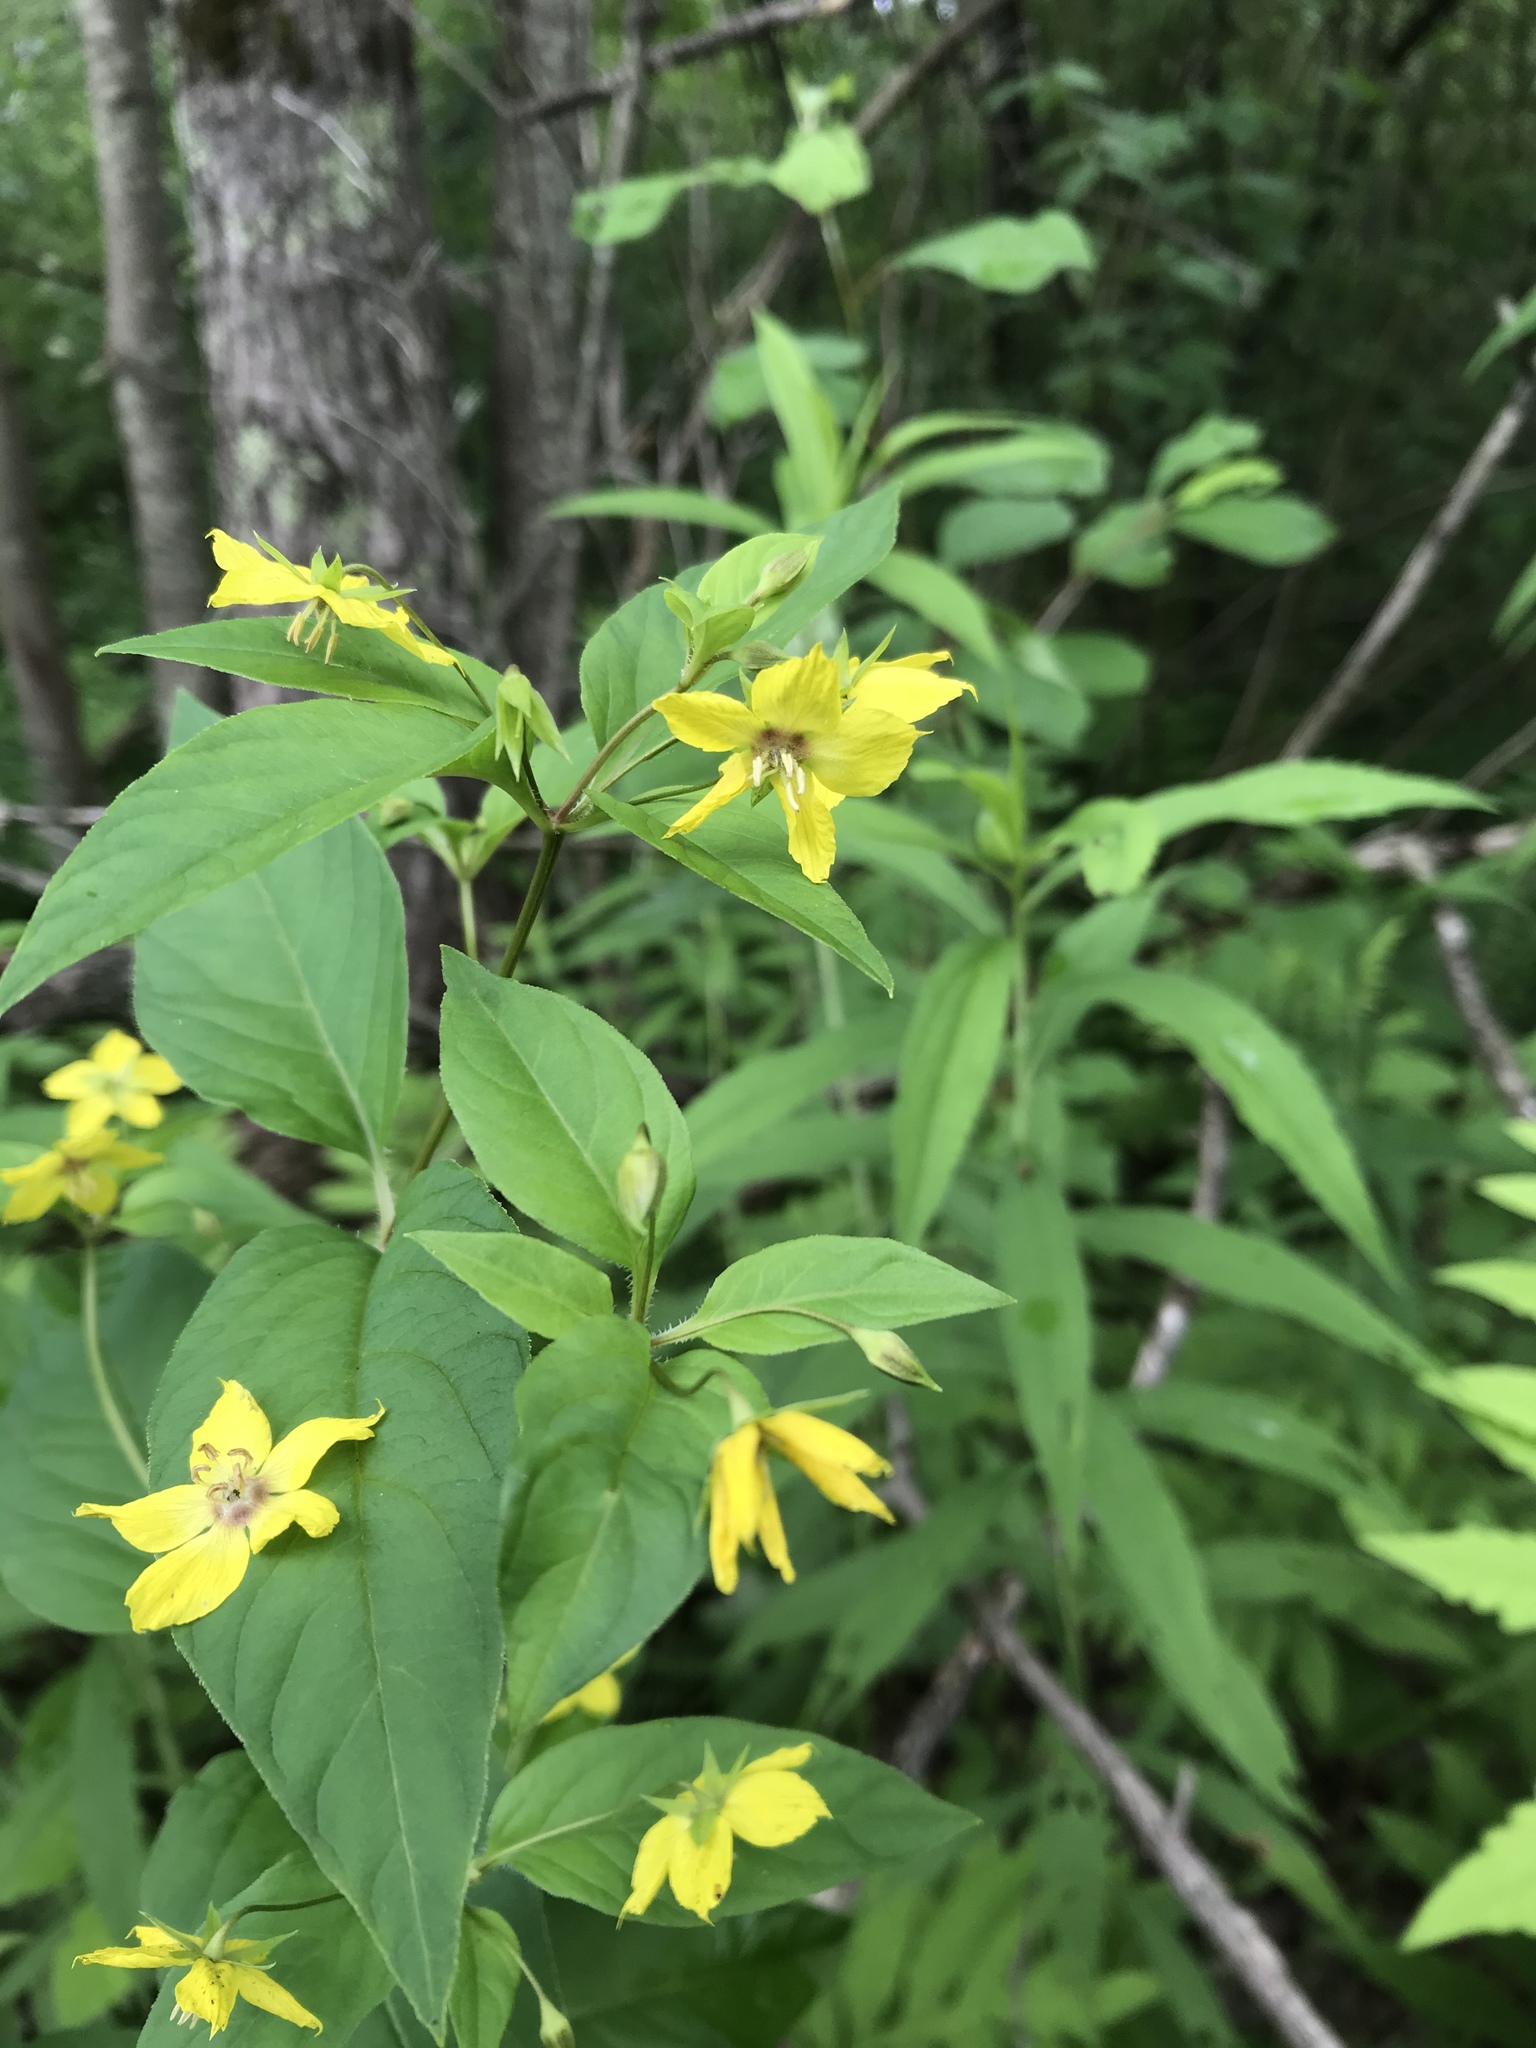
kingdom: Plantae
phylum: Tracheophyta
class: Magnoliopsida
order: Ericales
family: Primulaceae
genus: Lysimachia
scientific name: Lysimachia ciliata
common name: Fringed loosestrife
